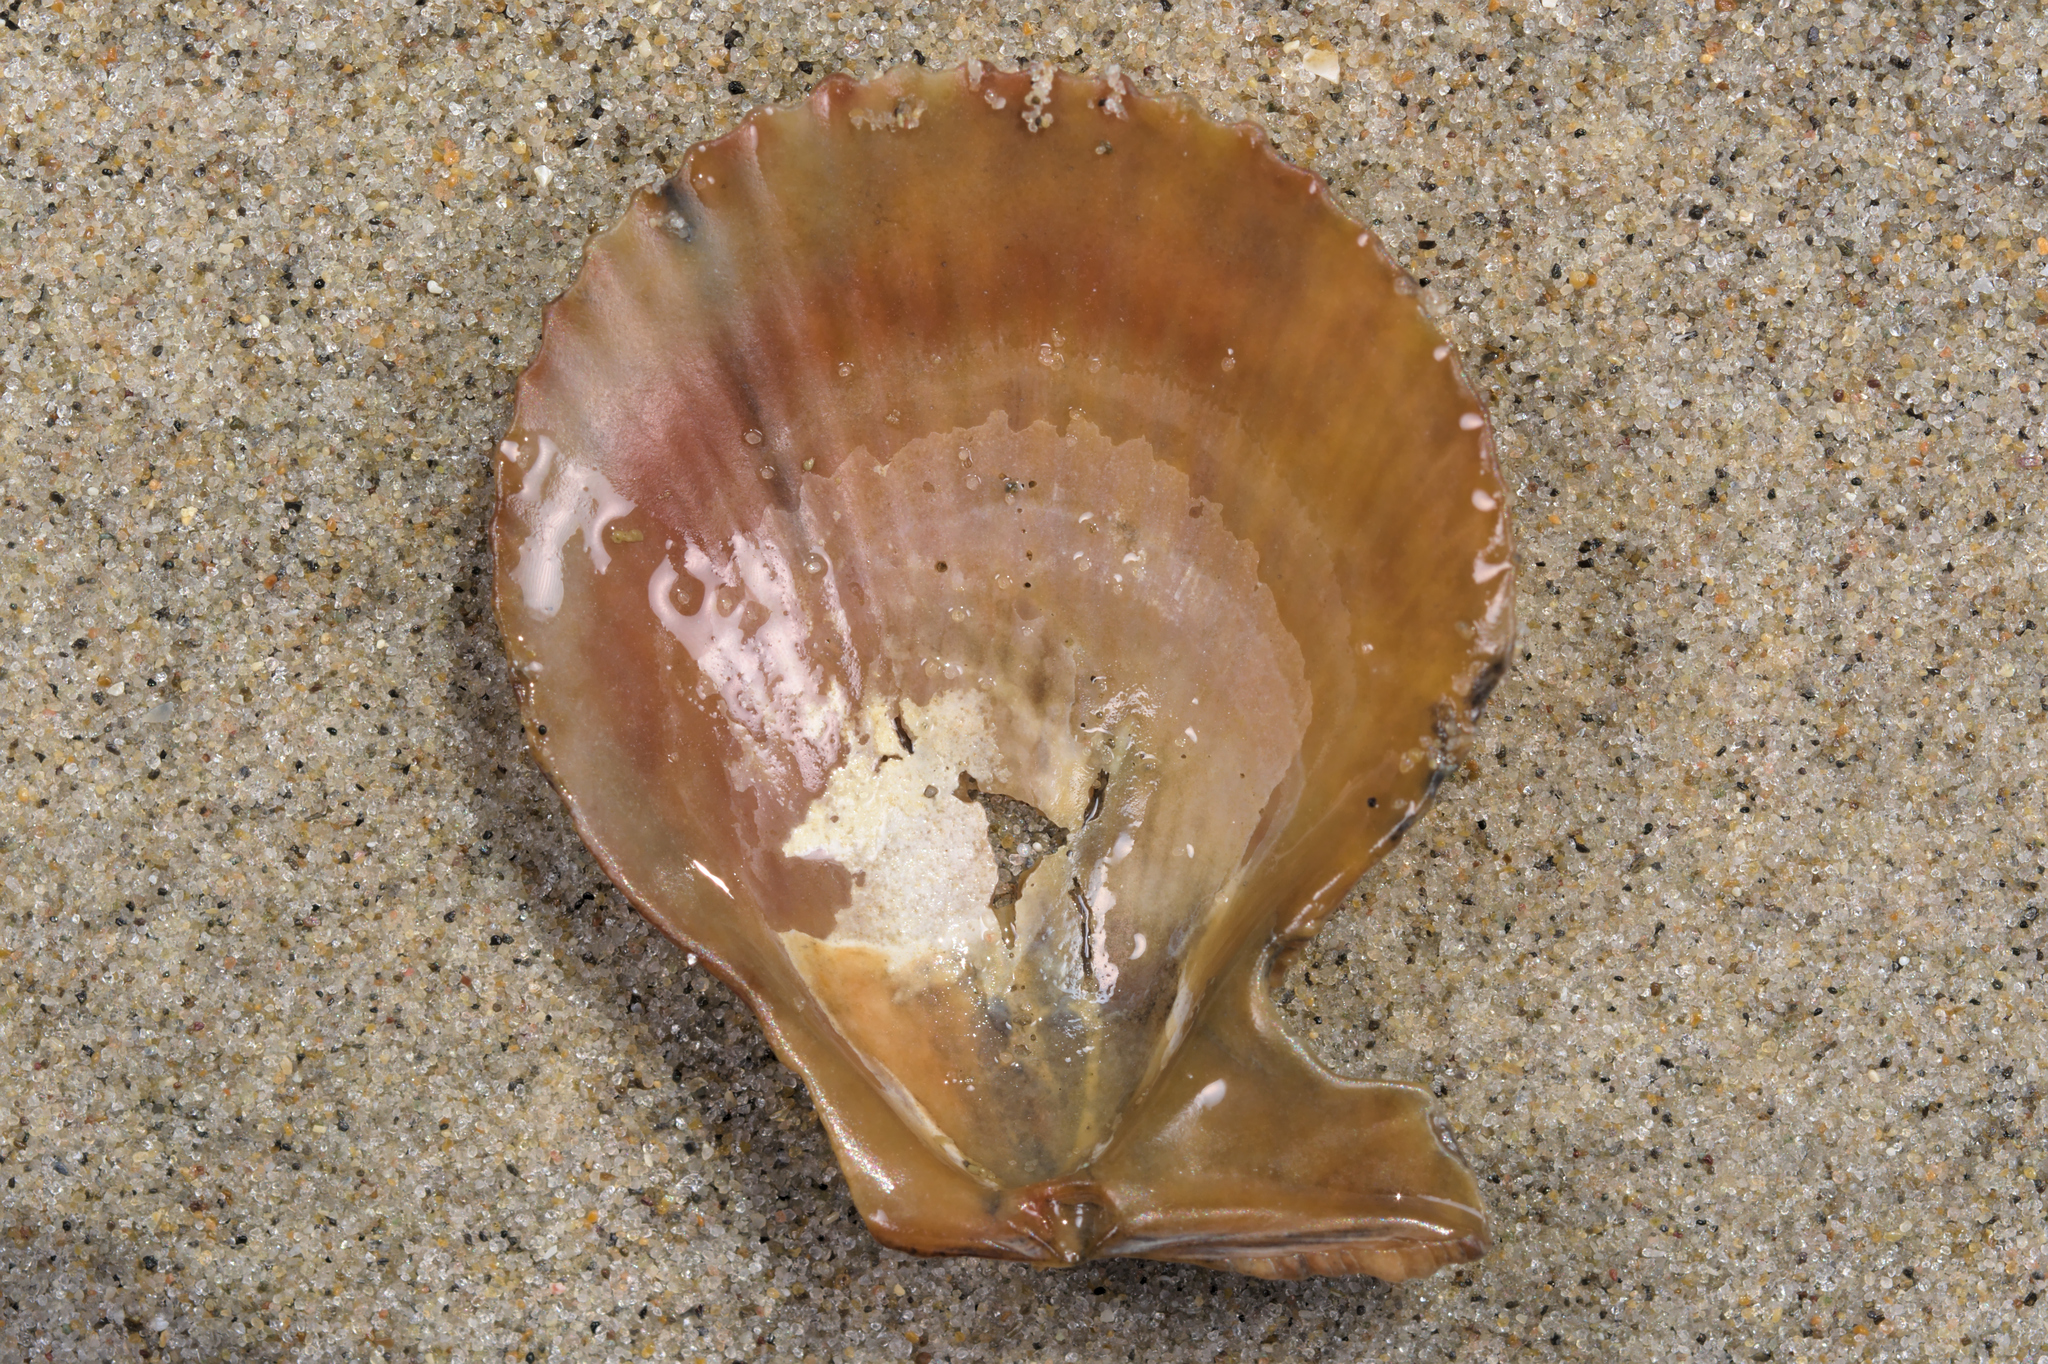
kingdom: Animalia
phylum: Mollusca
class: Bivalvia
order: Pectinida
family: Pectinidae
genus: Mimachlamys
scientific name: Mimachlamys varia
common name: Variegated scallop
